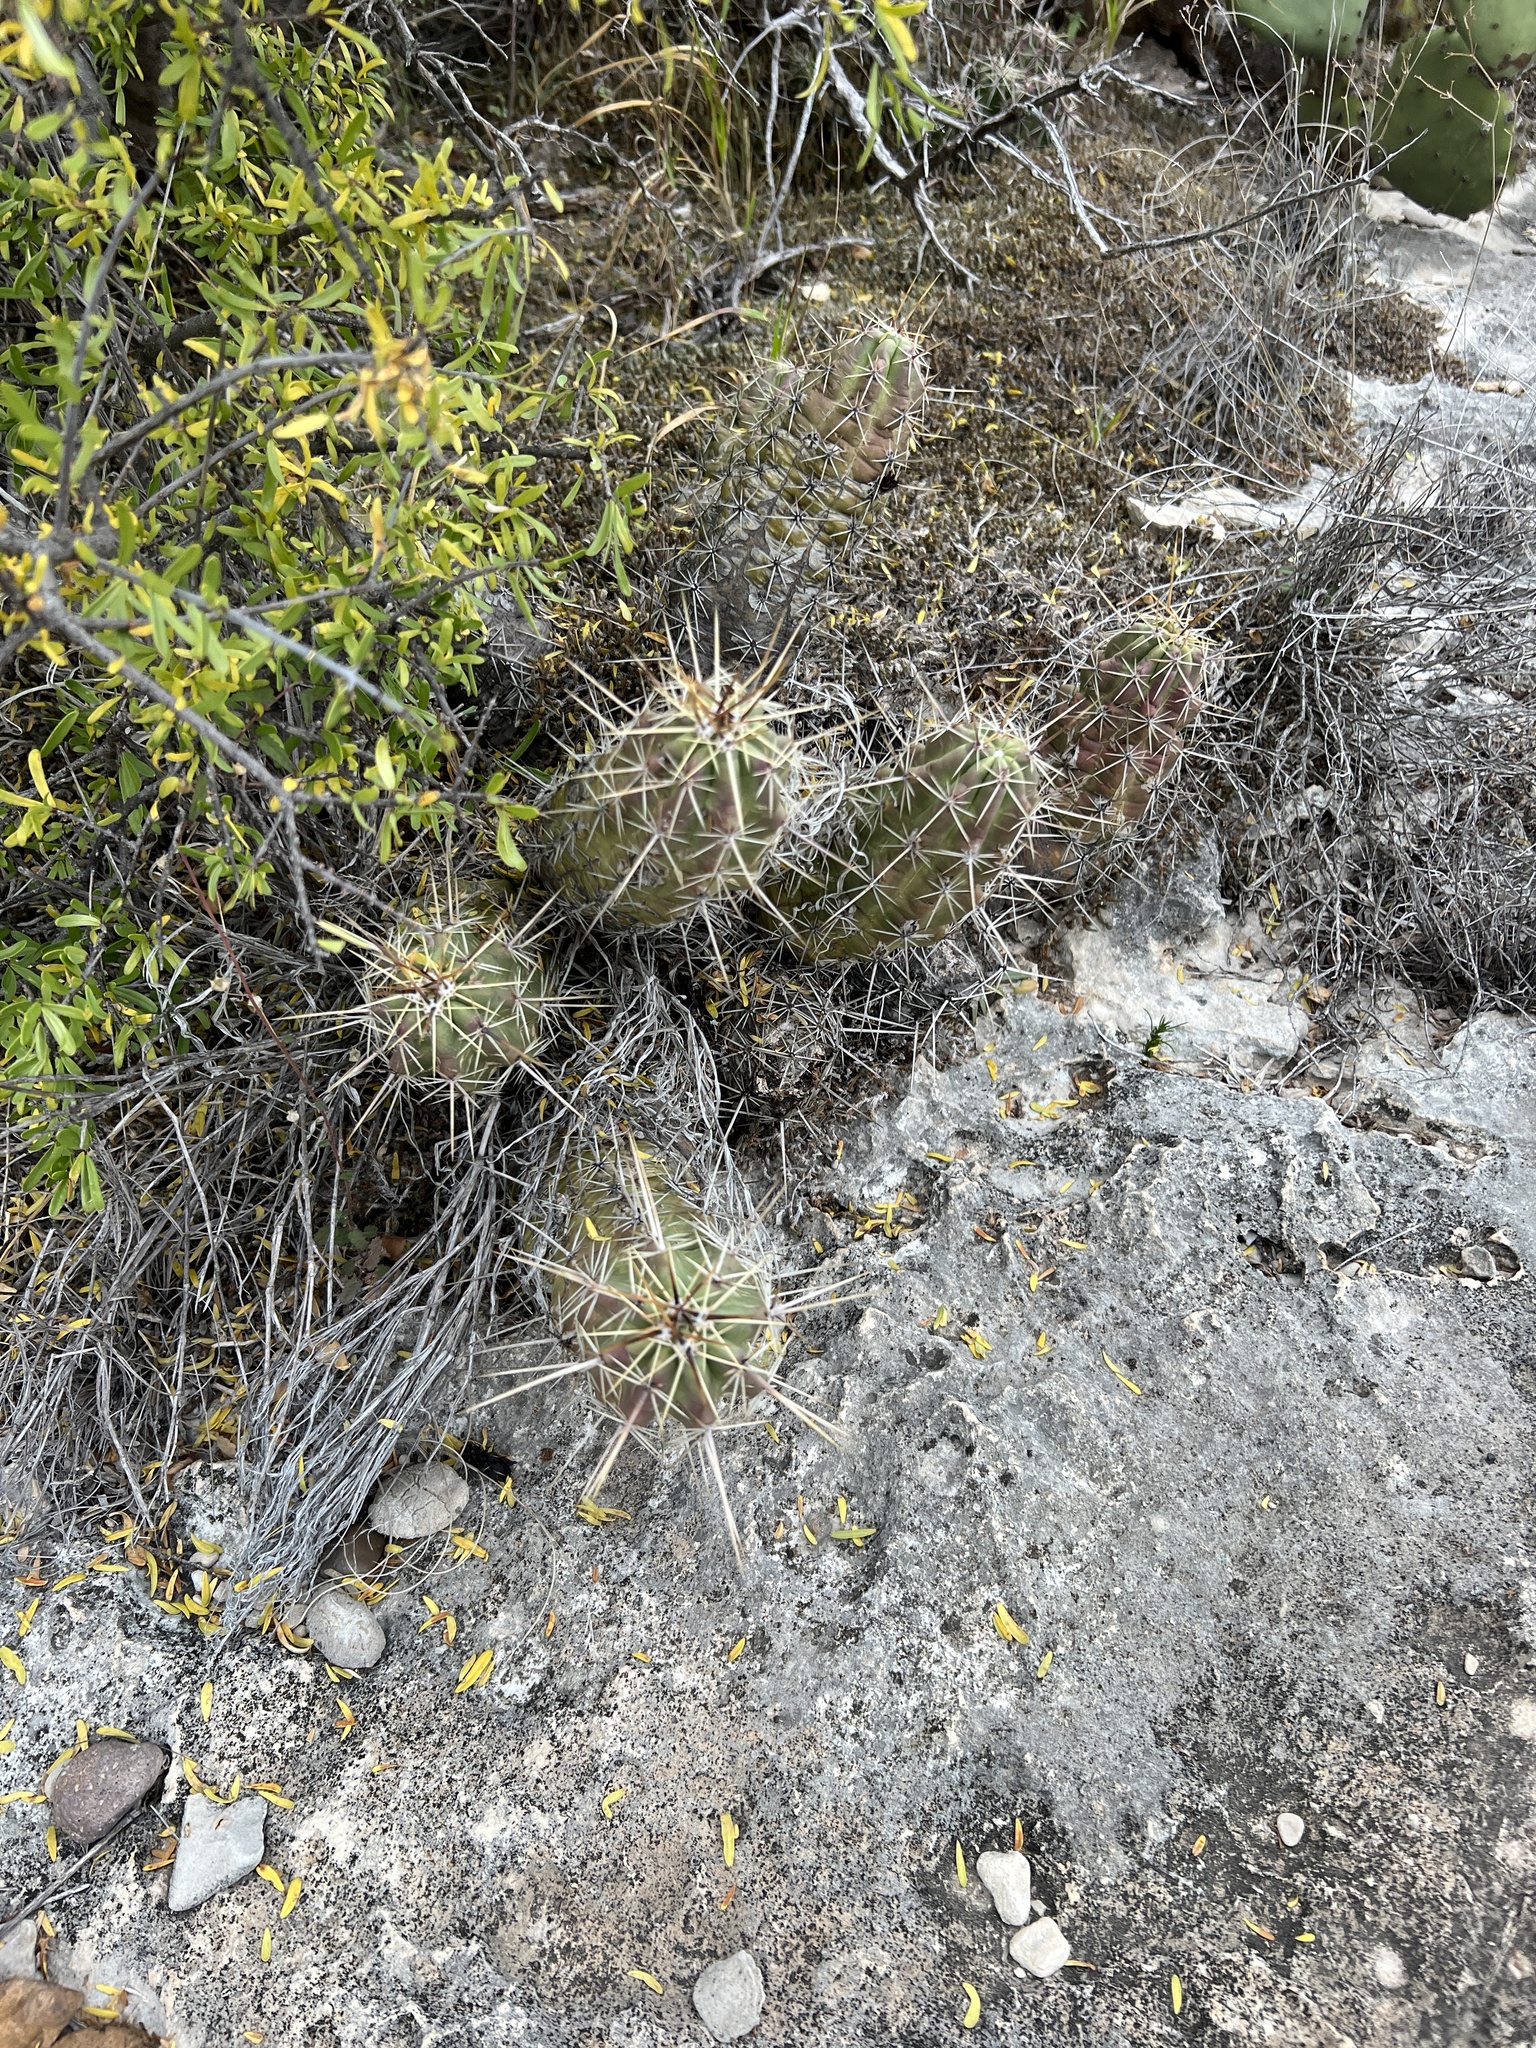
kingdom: Plantae
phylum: Tracheophyta
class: Magnoliopsida
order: Caryophyllales
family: Cactaceae
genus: Echinocereus
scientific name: Echinocereus enneacanthus
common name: Pitaya
